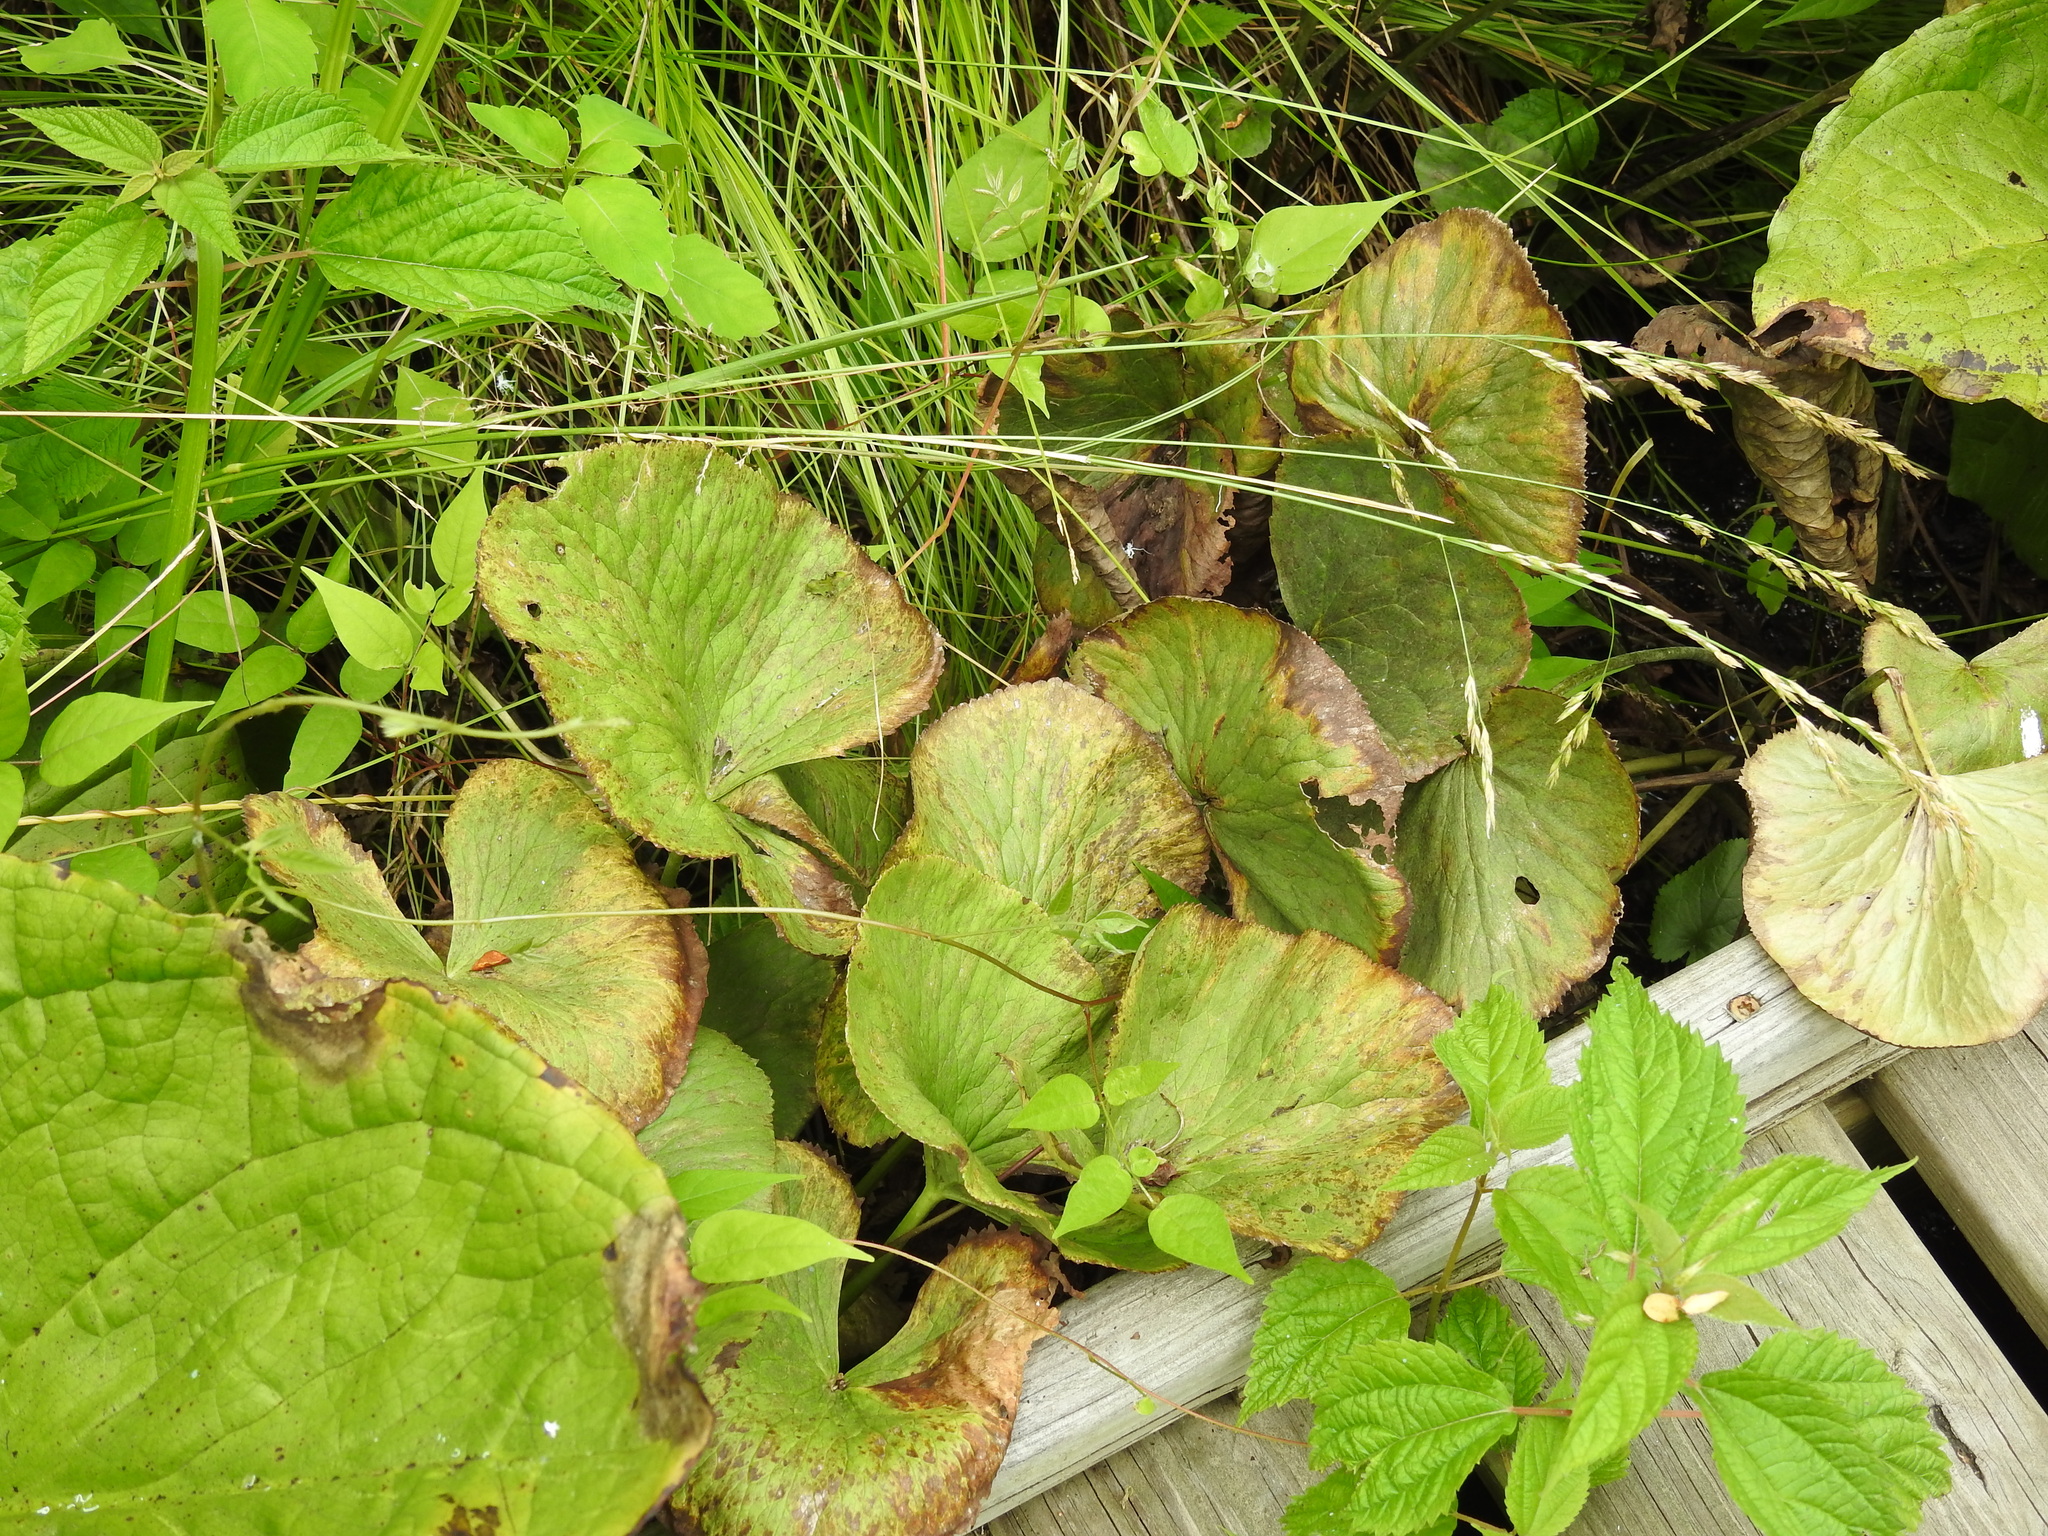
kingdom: Plantae
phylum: Tracheophyta
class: Magnoliopsida
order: Ranunculales
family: Ranunculaceae
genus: Caltha
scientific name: Caltha palustris
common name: Marsh marigold
